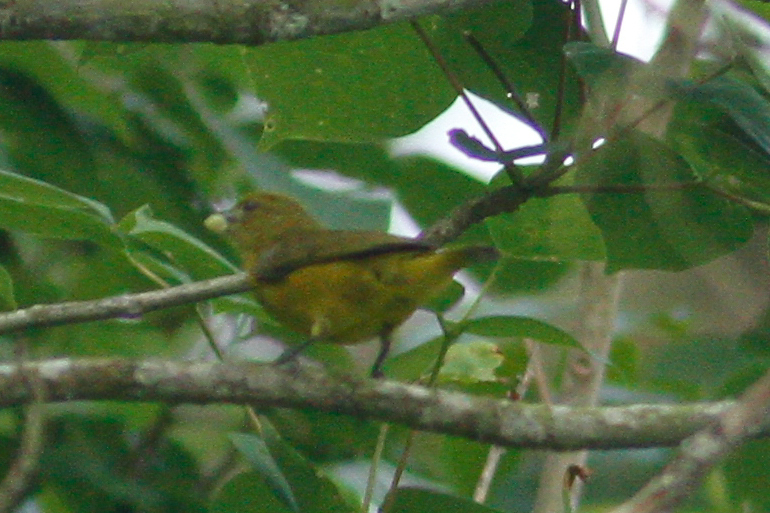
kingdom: Animalia
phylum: Chordata
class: Aves
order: Passeriformes
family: Fringillidae
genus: Euphonia
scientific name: Euphonia laniirostris
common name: Thick-billed euphonia
